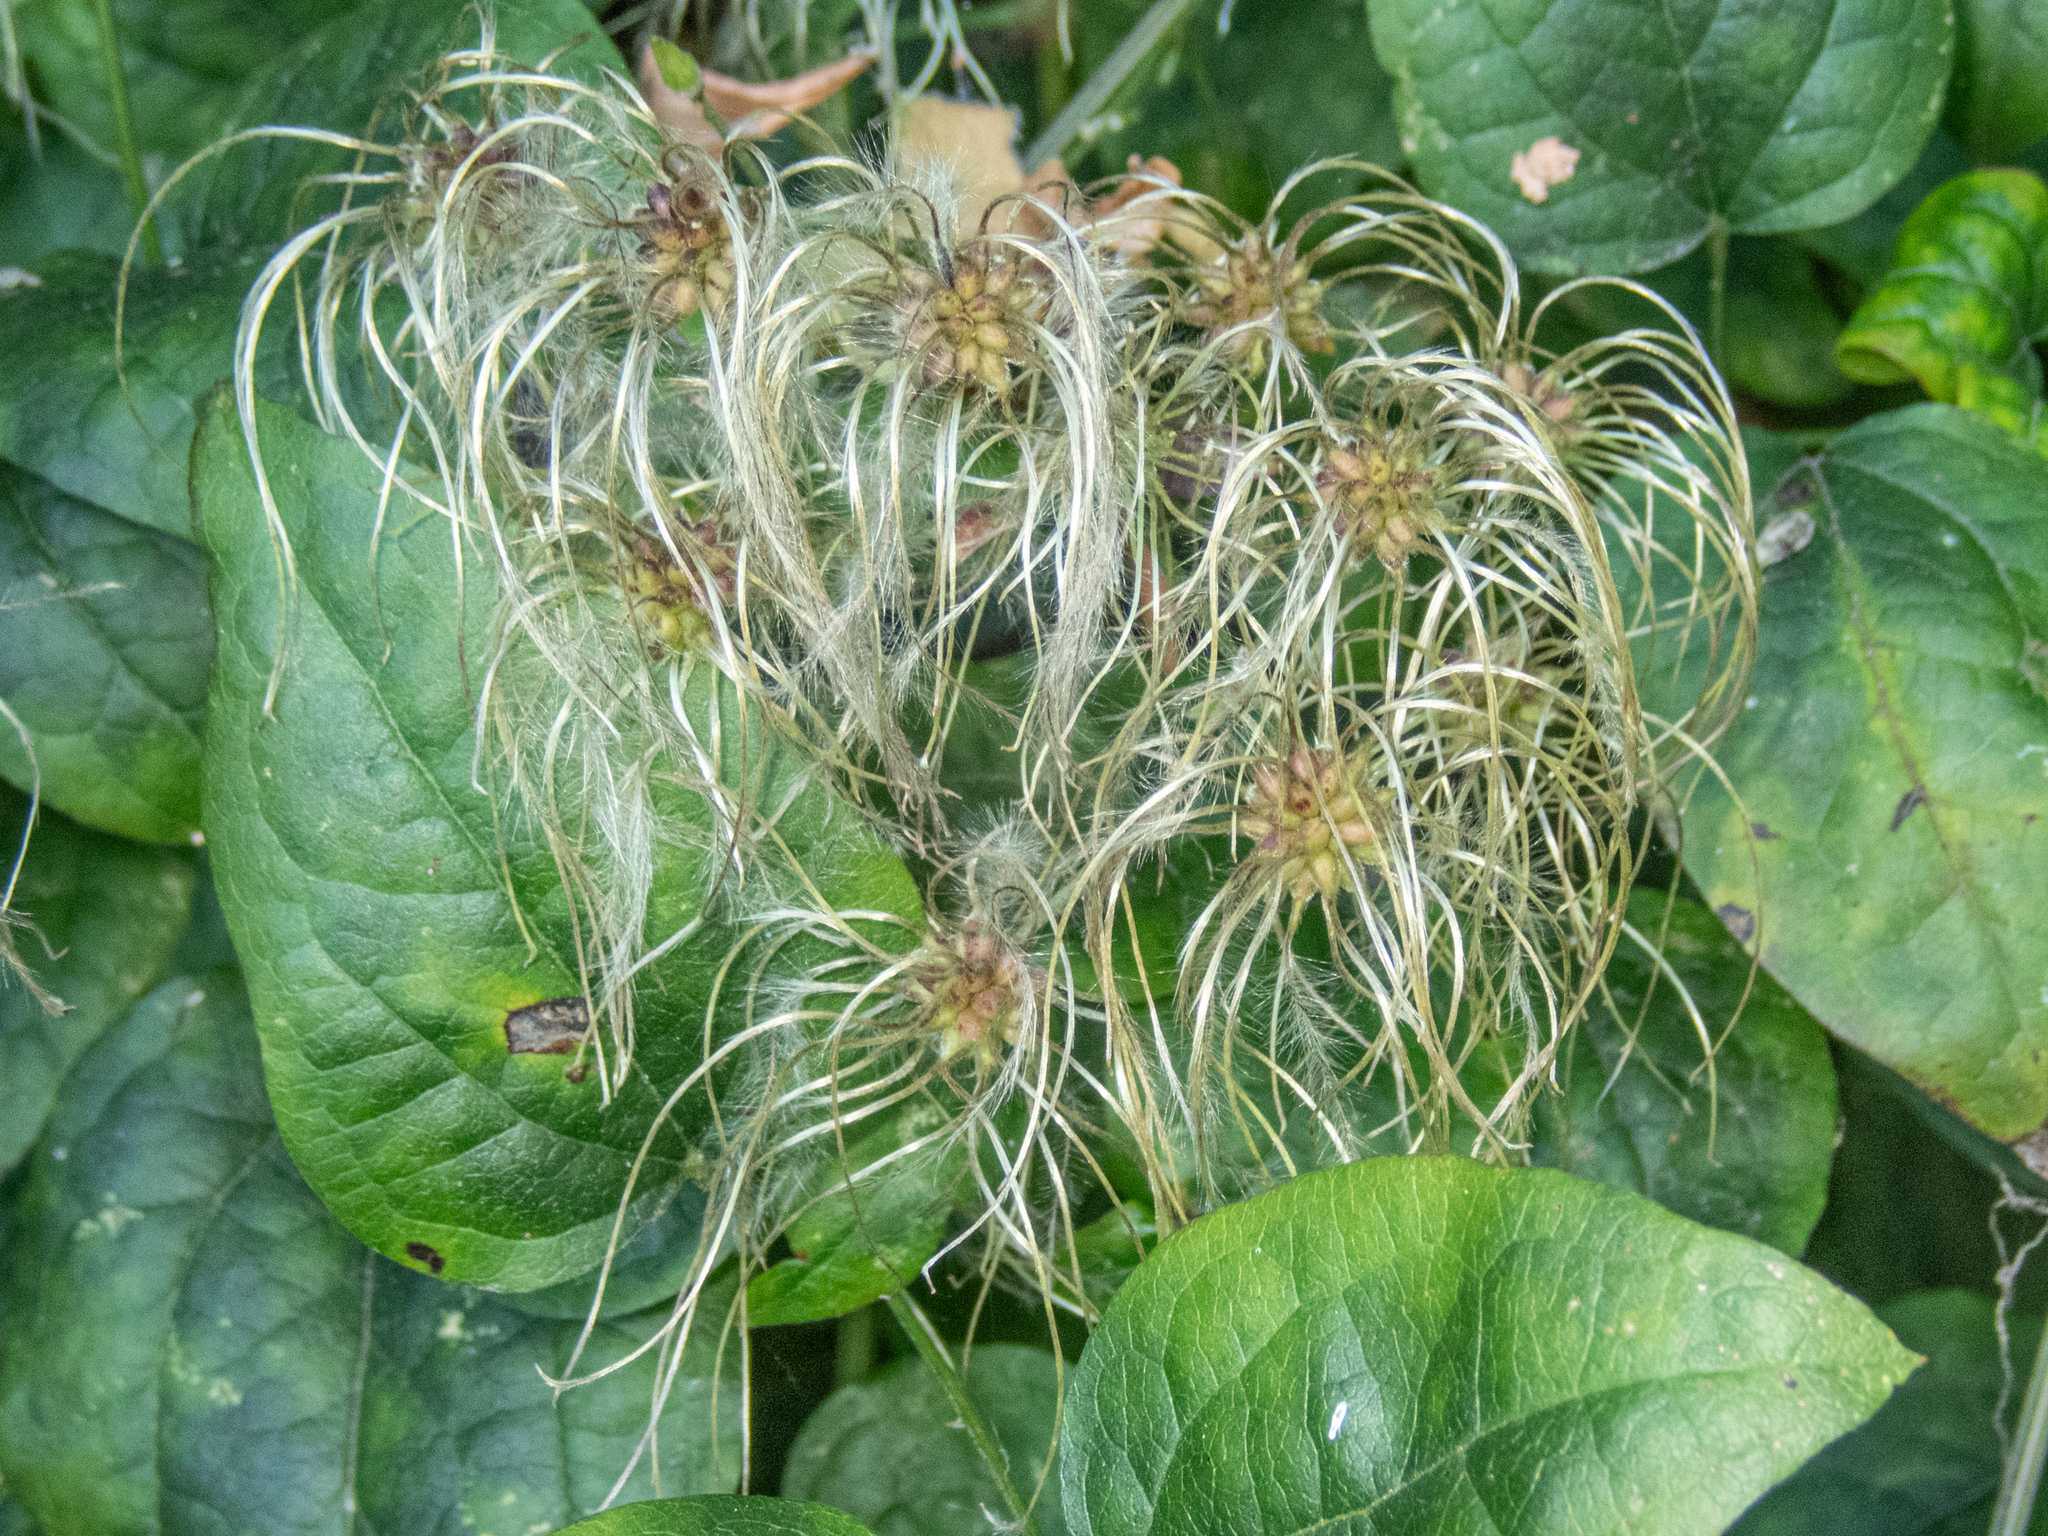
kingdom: Plantae
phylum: Tracheophyta
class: Magnoliopsida
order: Ranunculales
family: Ranunculaceae
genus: Clematis
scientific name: Clematis vitalba
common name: Evergreen clematis
